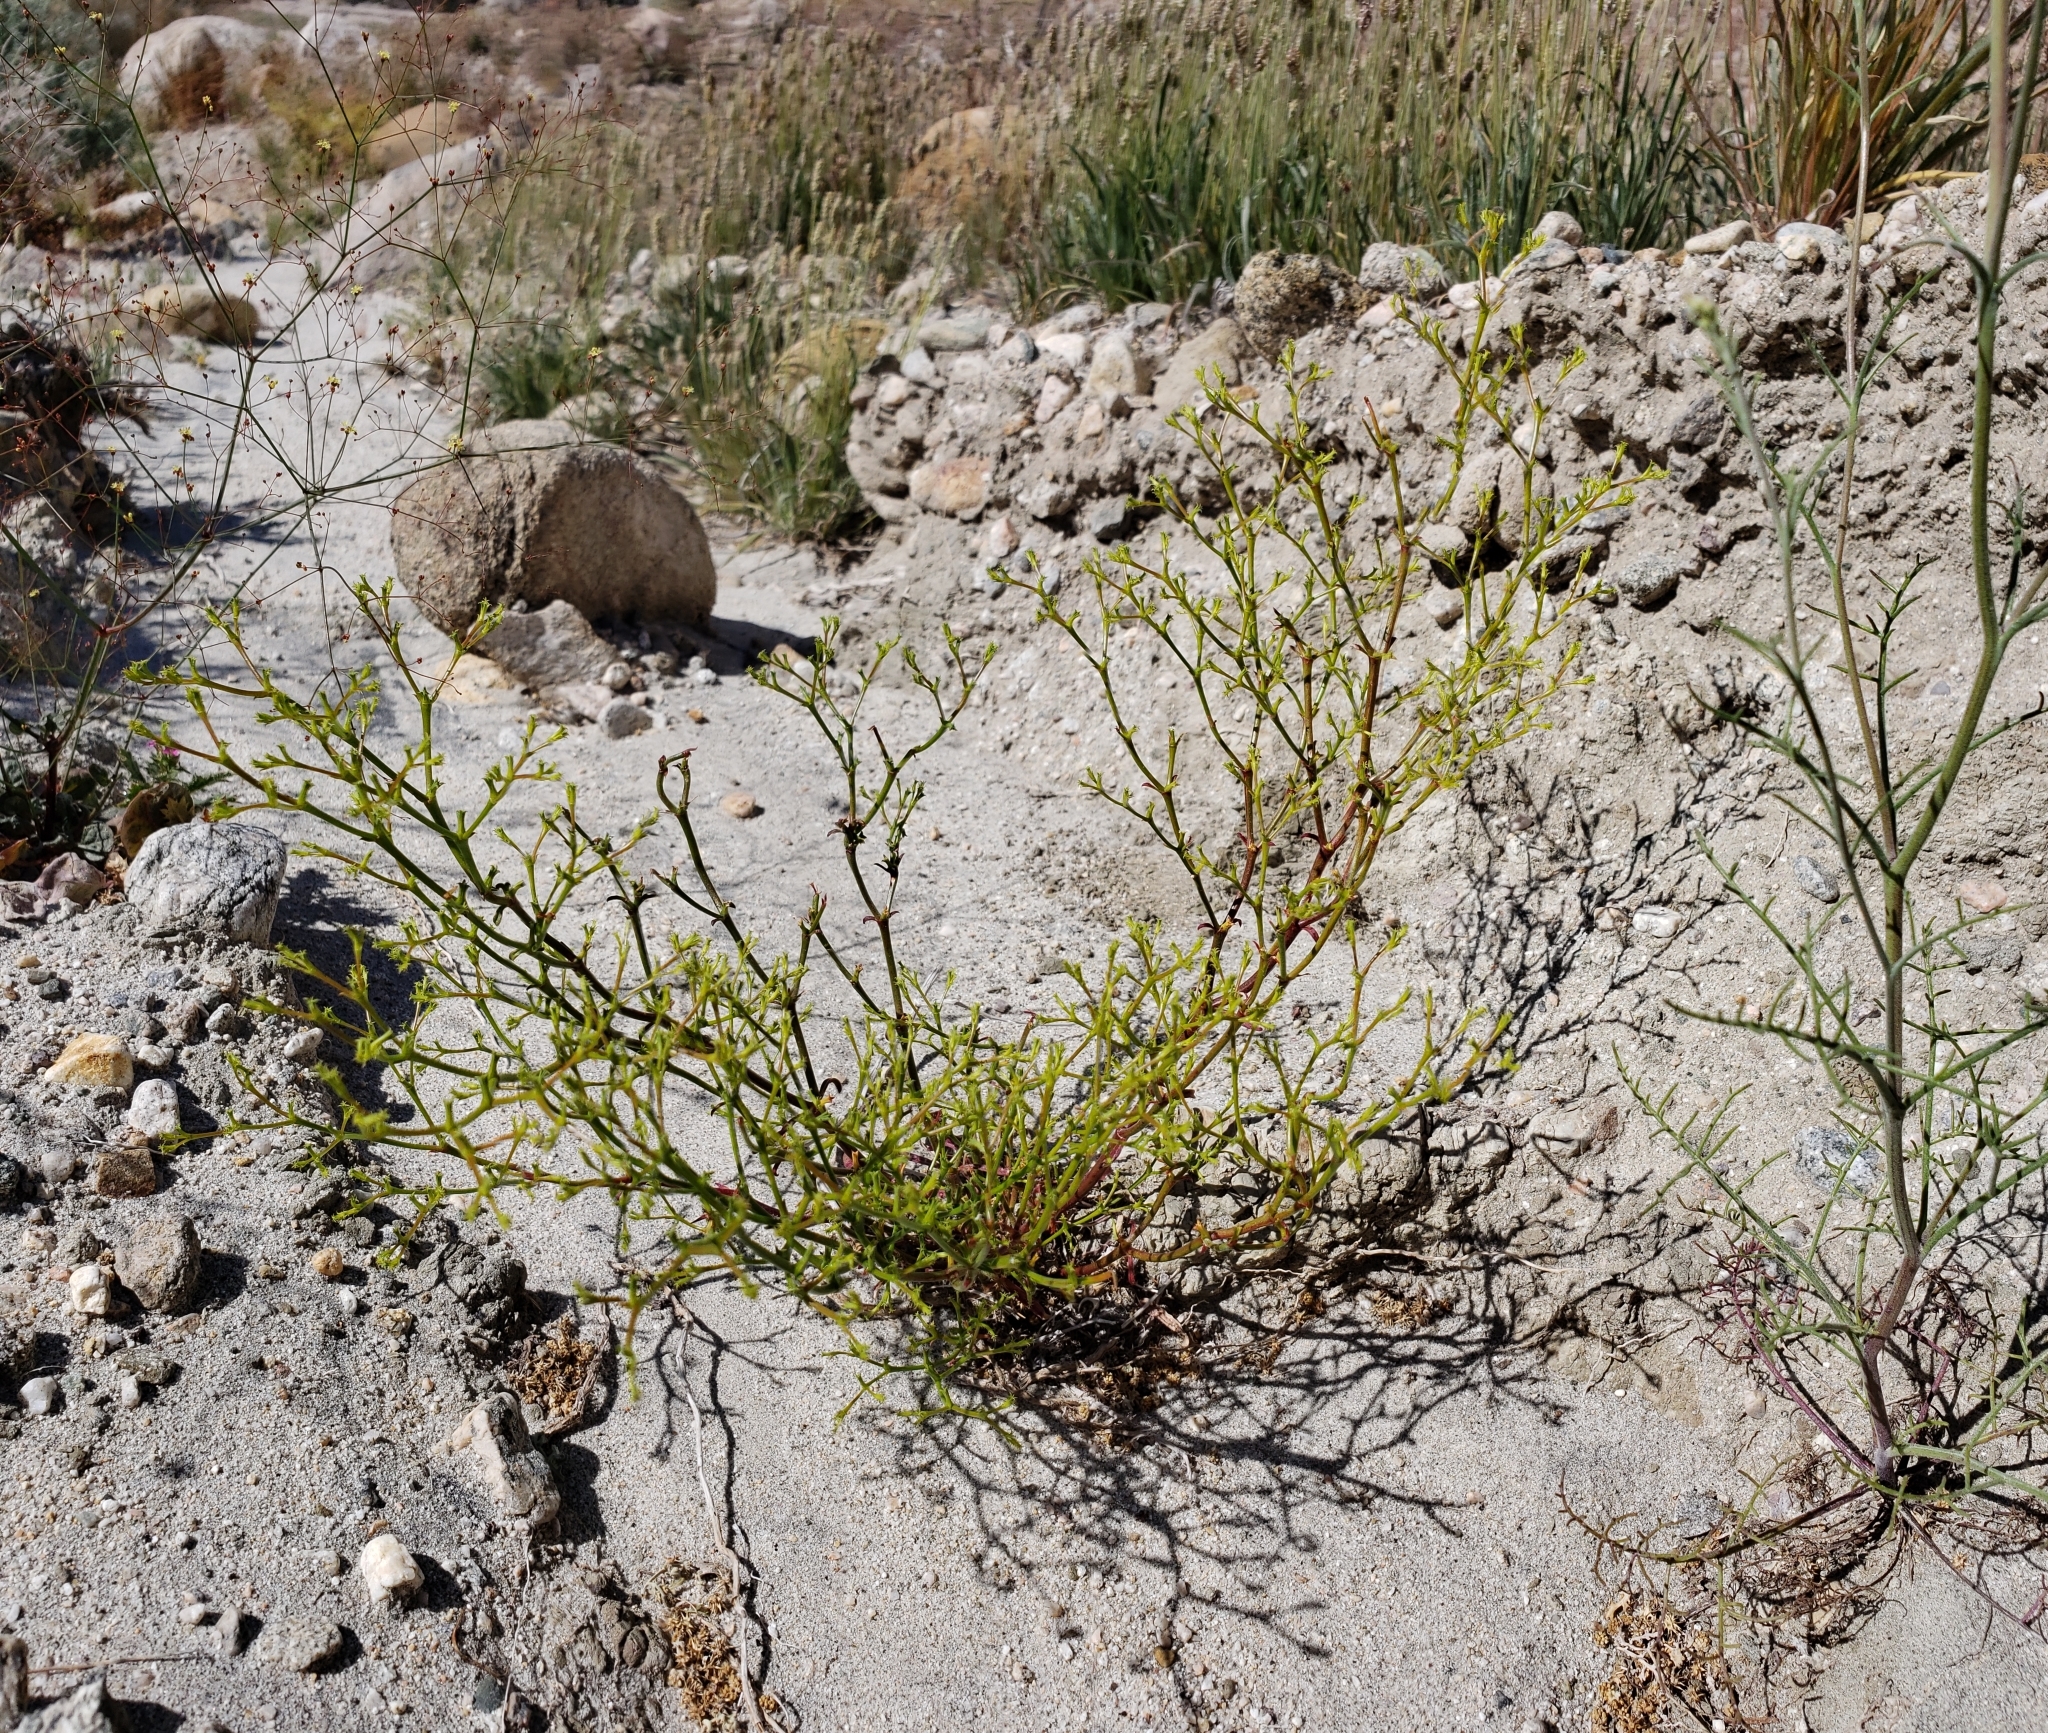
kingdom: Plantae
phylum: Tracheophyta
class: Magnoliopsida
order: Caryophyllales
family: Polygonaceae
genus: Chorizanthe
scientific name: Chorizanthe brevicornu
